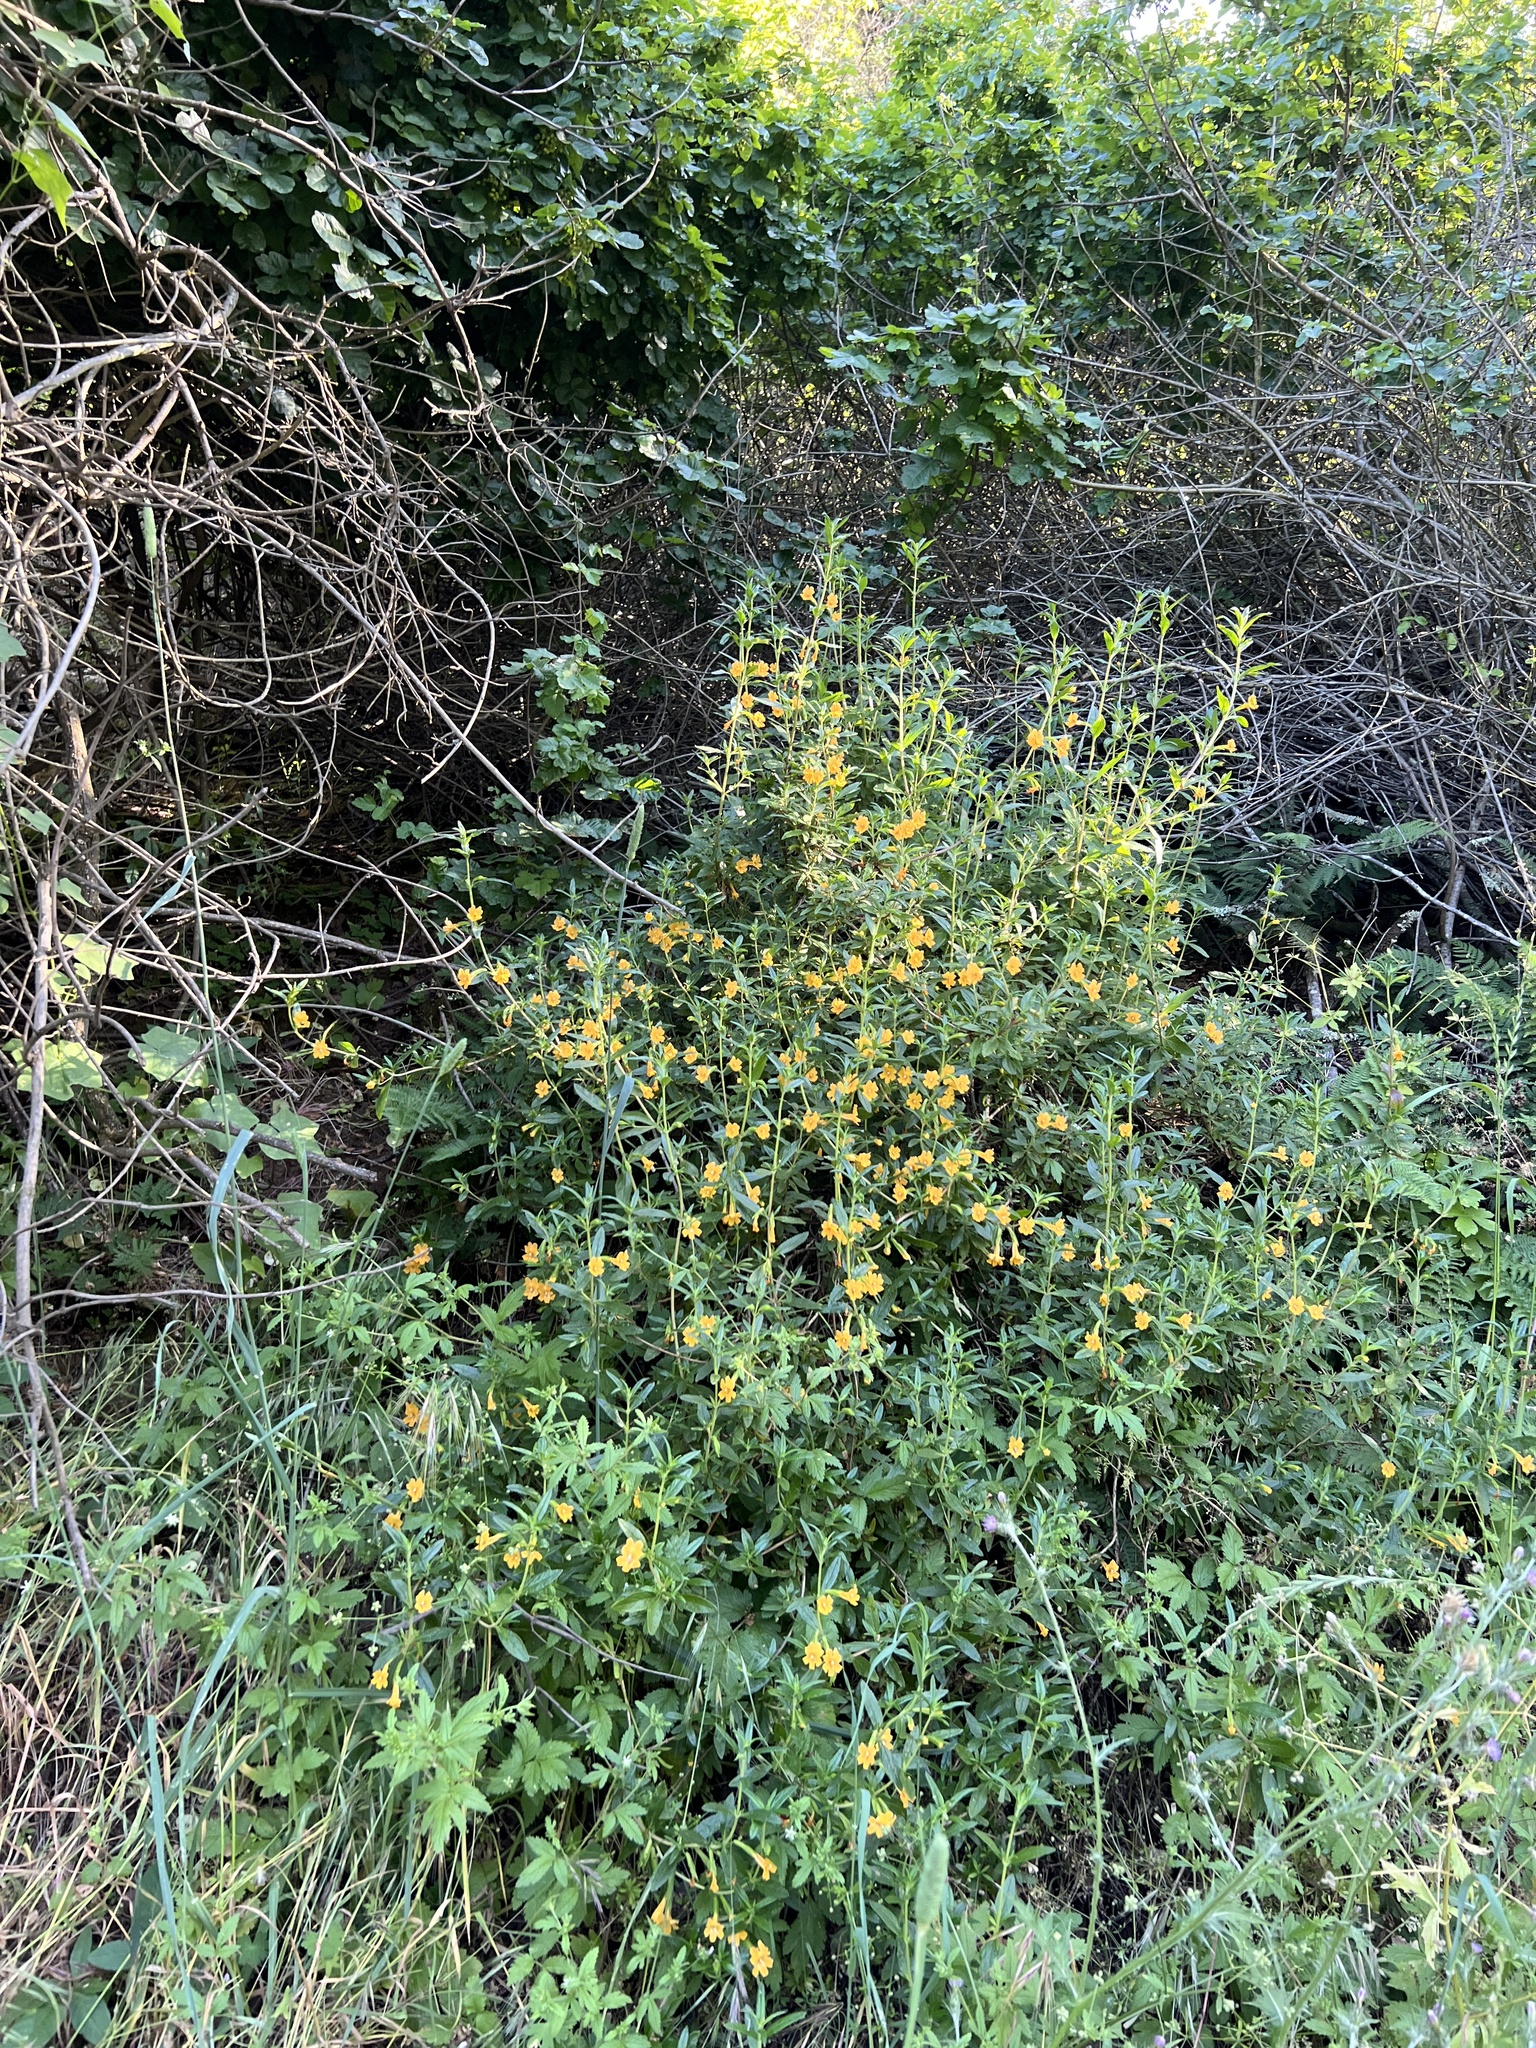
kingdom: Plantae
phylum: Tracheophyta
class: Magnoliopsida
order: Lamiales
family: Phrymaceae
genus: Diplacus
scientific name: Diplacus aurantiacus
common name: Bush monkey-flower
